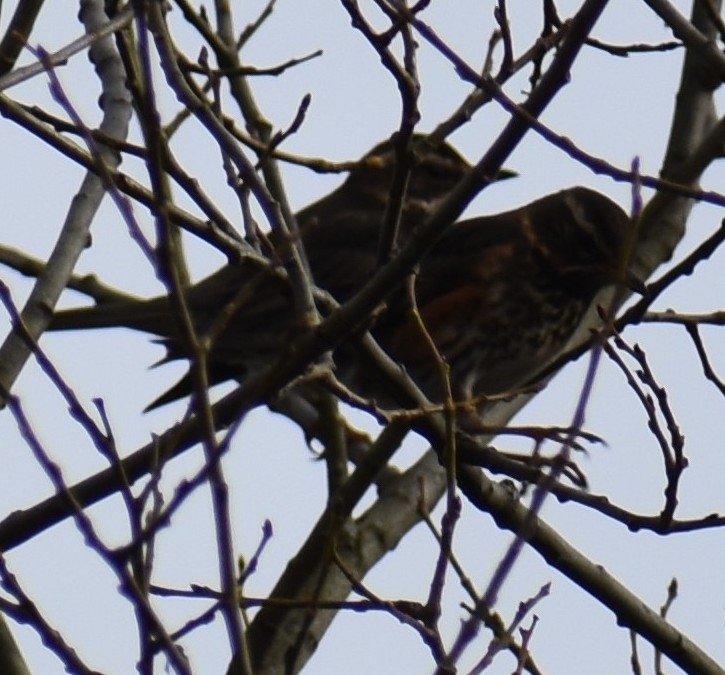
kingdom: Animalia
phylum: Chordata
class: Aves
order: Passeriformes
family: Turdidae
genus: Turdus
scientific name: Turdus iliacus
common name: Redwing
